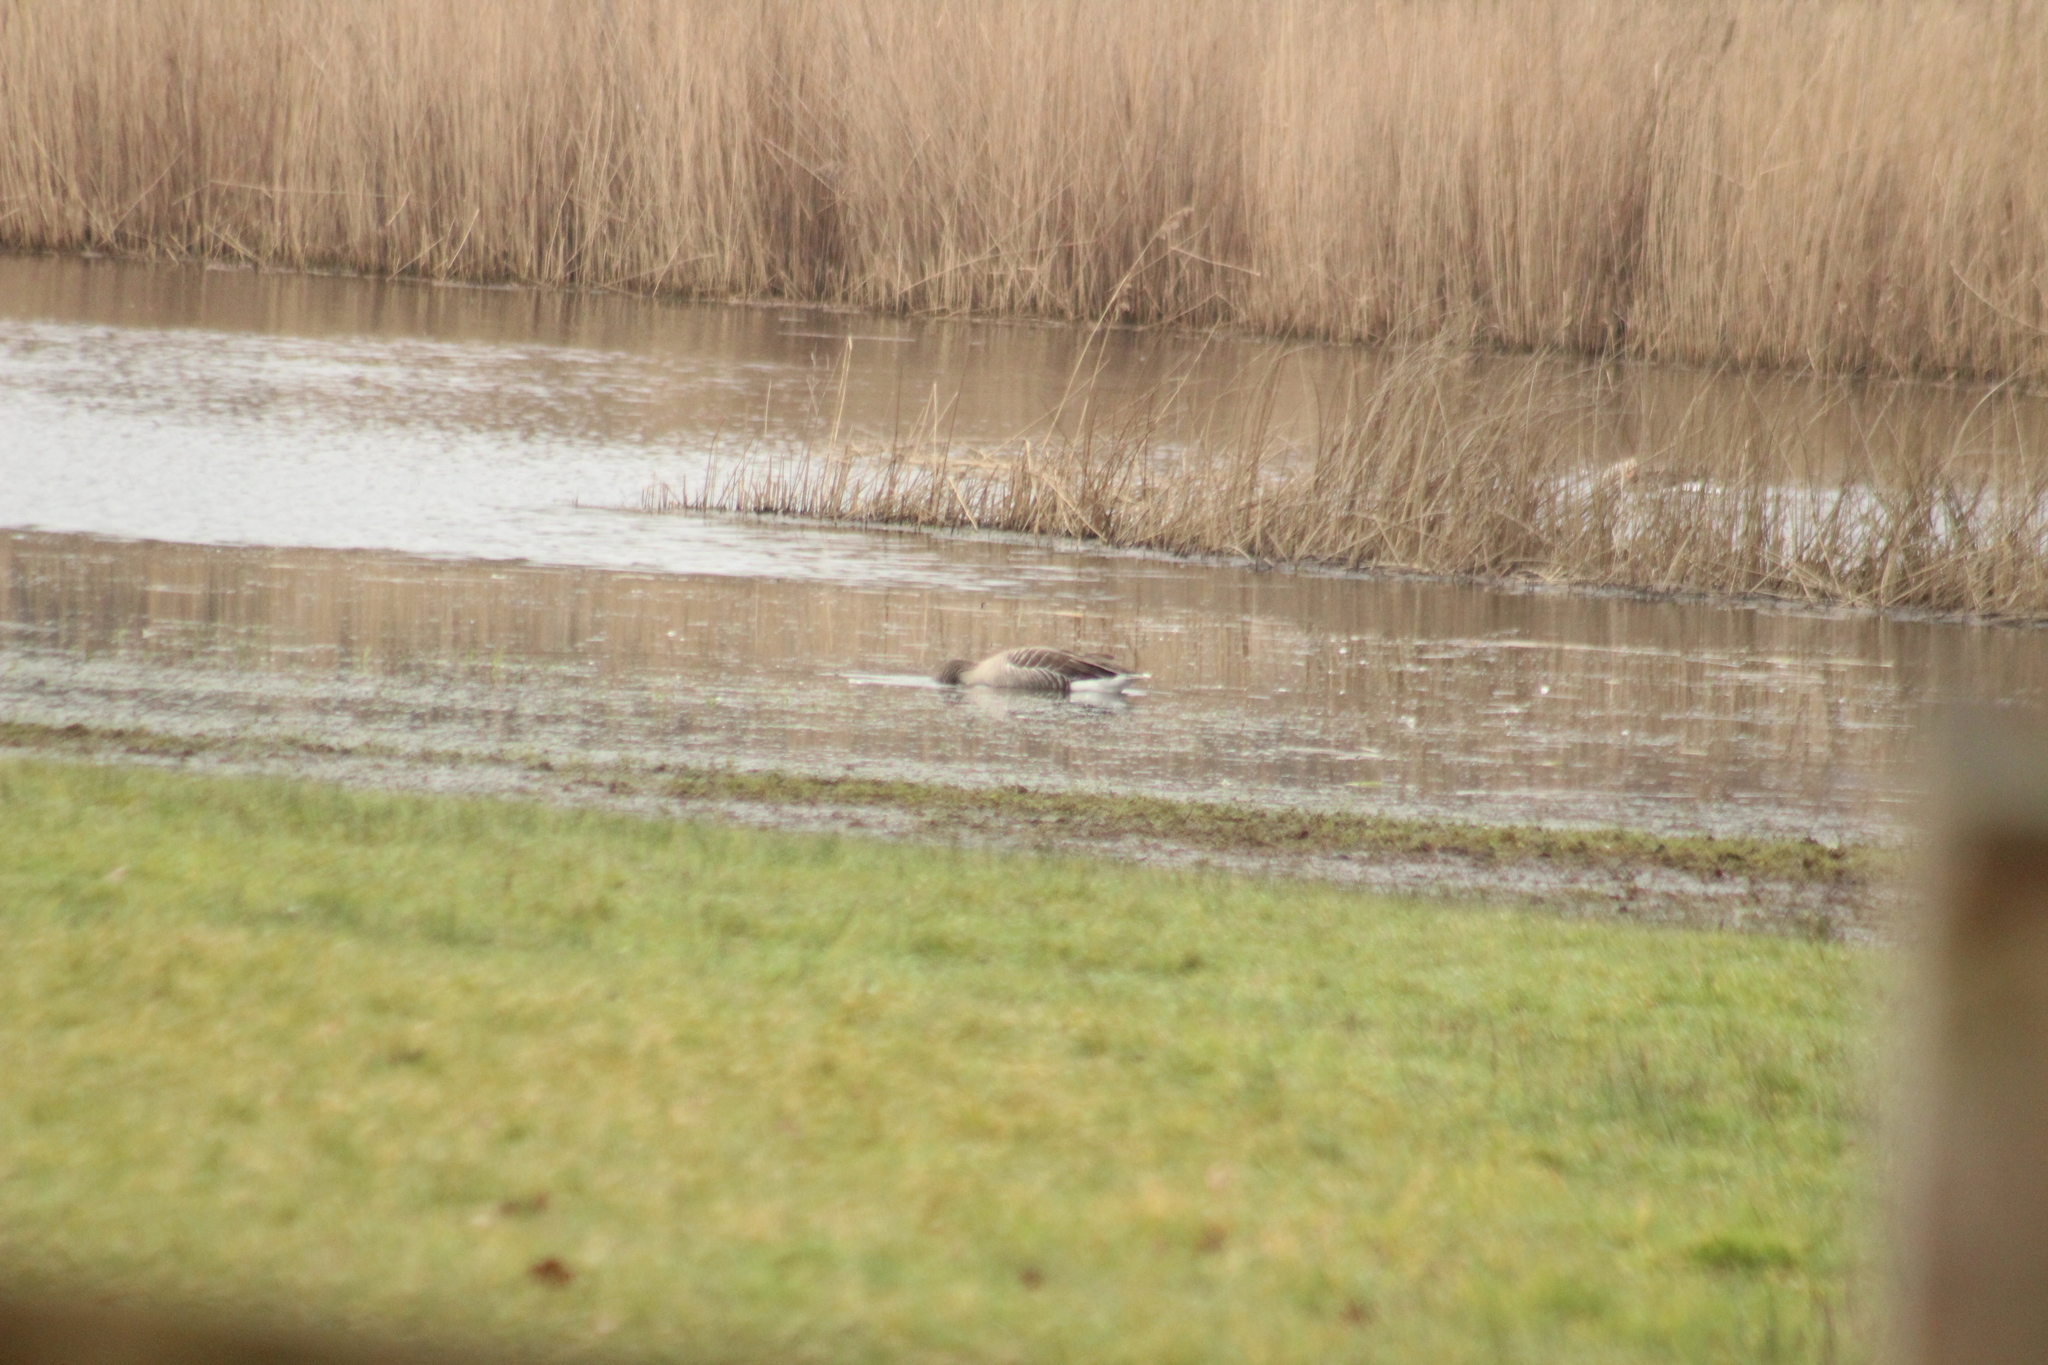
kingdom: Animalia
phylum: Chordata
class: Aves
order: Anseriformes
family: Anatidae
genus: Anser
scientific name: Anser anser
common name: Greylag goose
